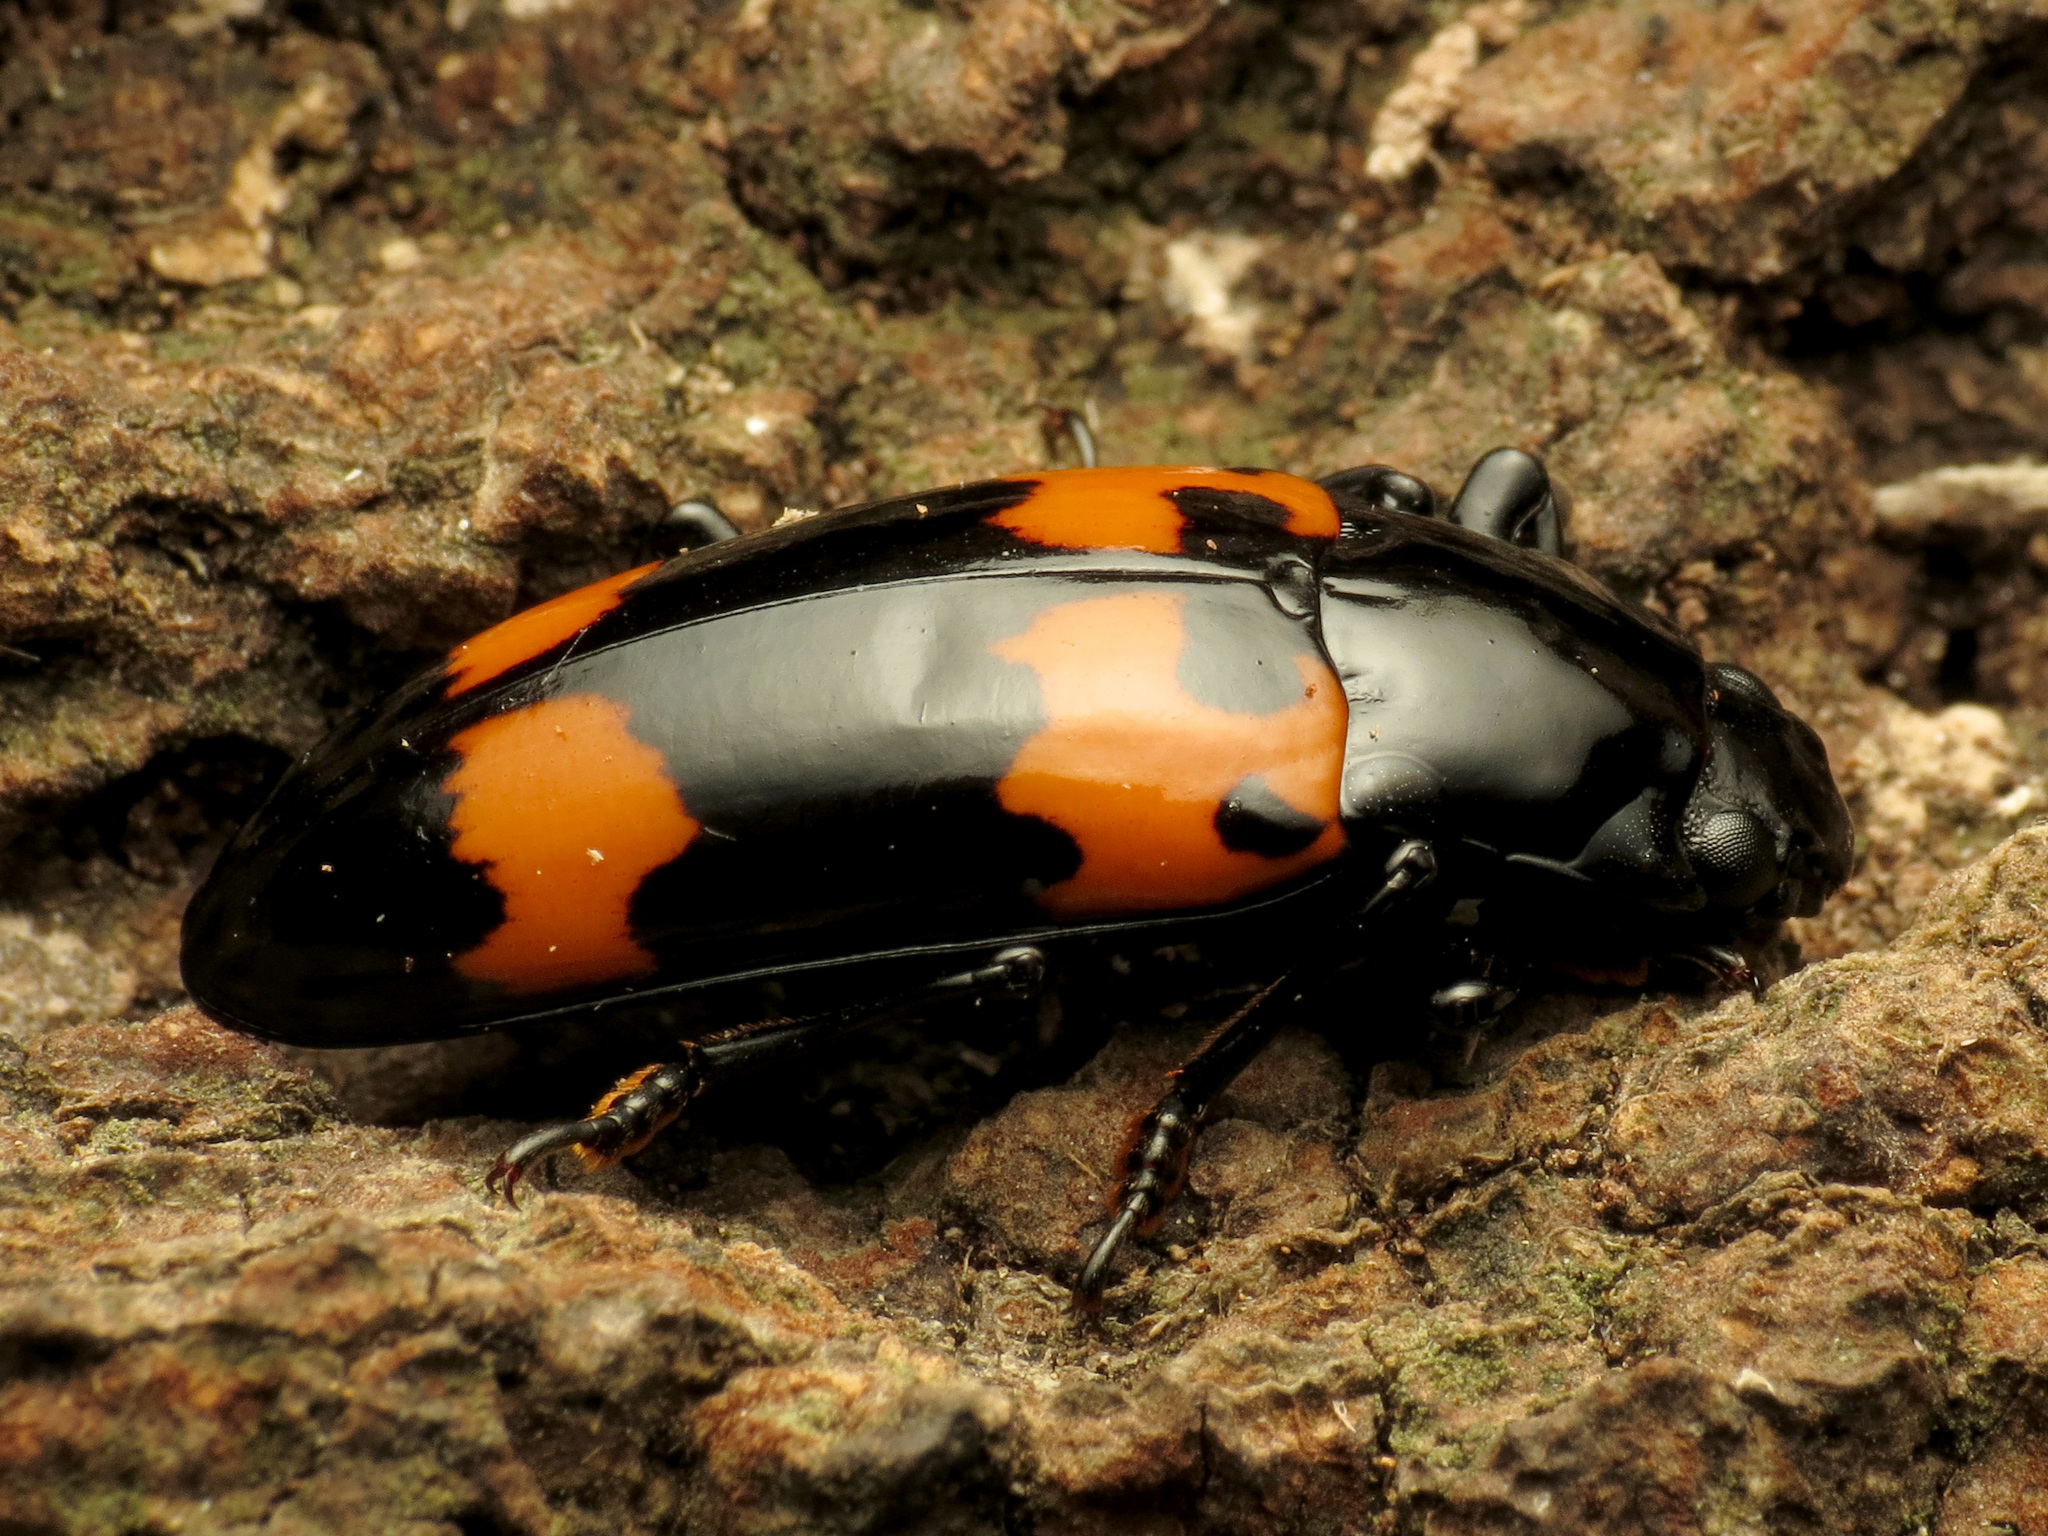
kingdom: Animalia
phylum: Arthropoda
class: Insecta
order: Coleoptera
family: Erotylidae
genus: Megalodacne
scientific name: Megalodacne heros
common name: Pleasing fungus beetle
